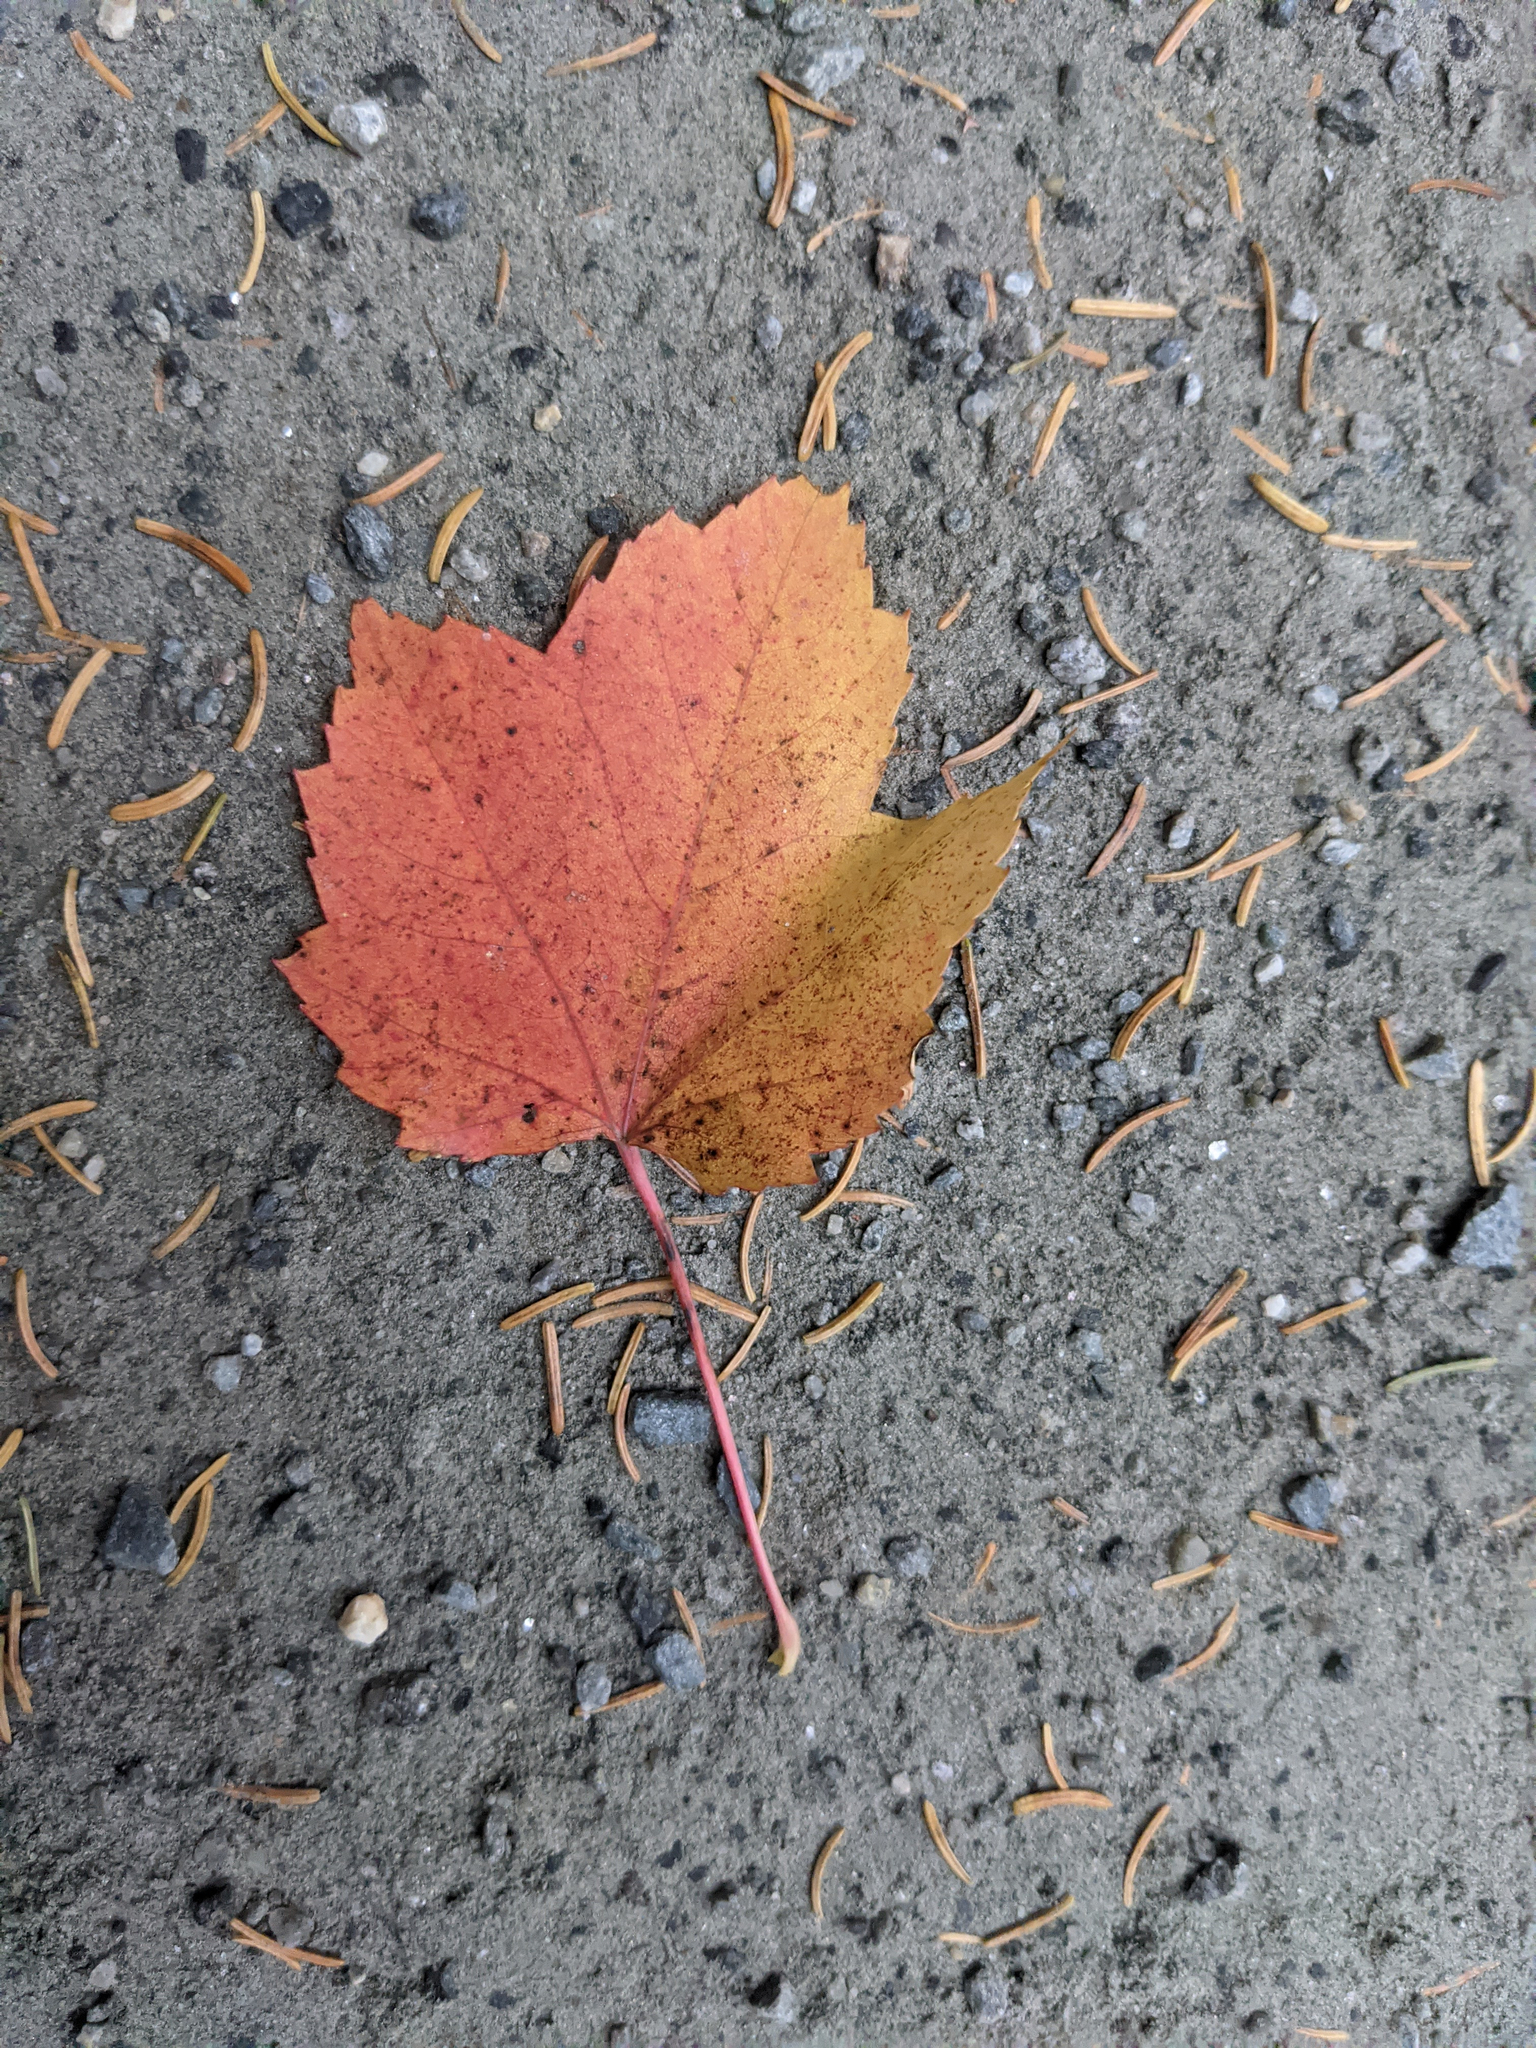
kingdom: Plantae
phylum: Tracheophyta
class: Magnoliopsida
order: Sapindales
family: Sapindaceae
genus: Acer
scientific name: Acer rubrum
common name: Red maple
